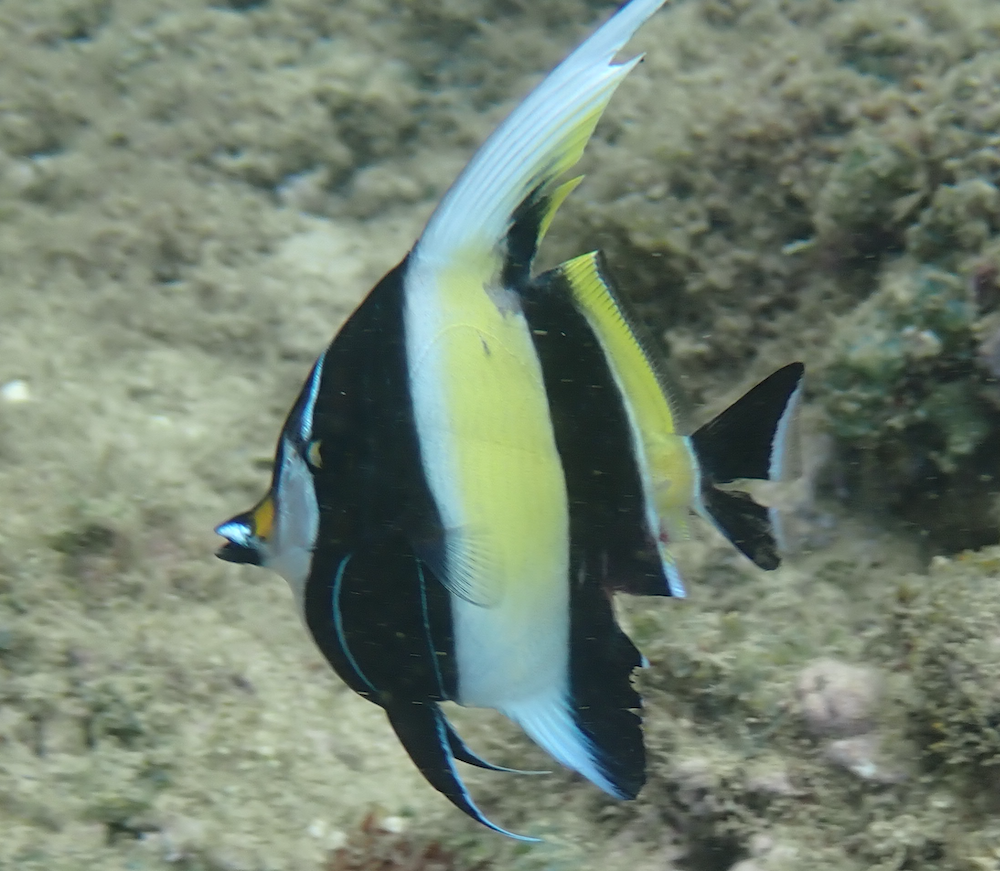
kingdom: Animalia
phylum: Chordata
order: Perciformes
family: Zanclidae
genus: Zanclus
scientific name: Zanclus cornutus
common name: Moorish idol
